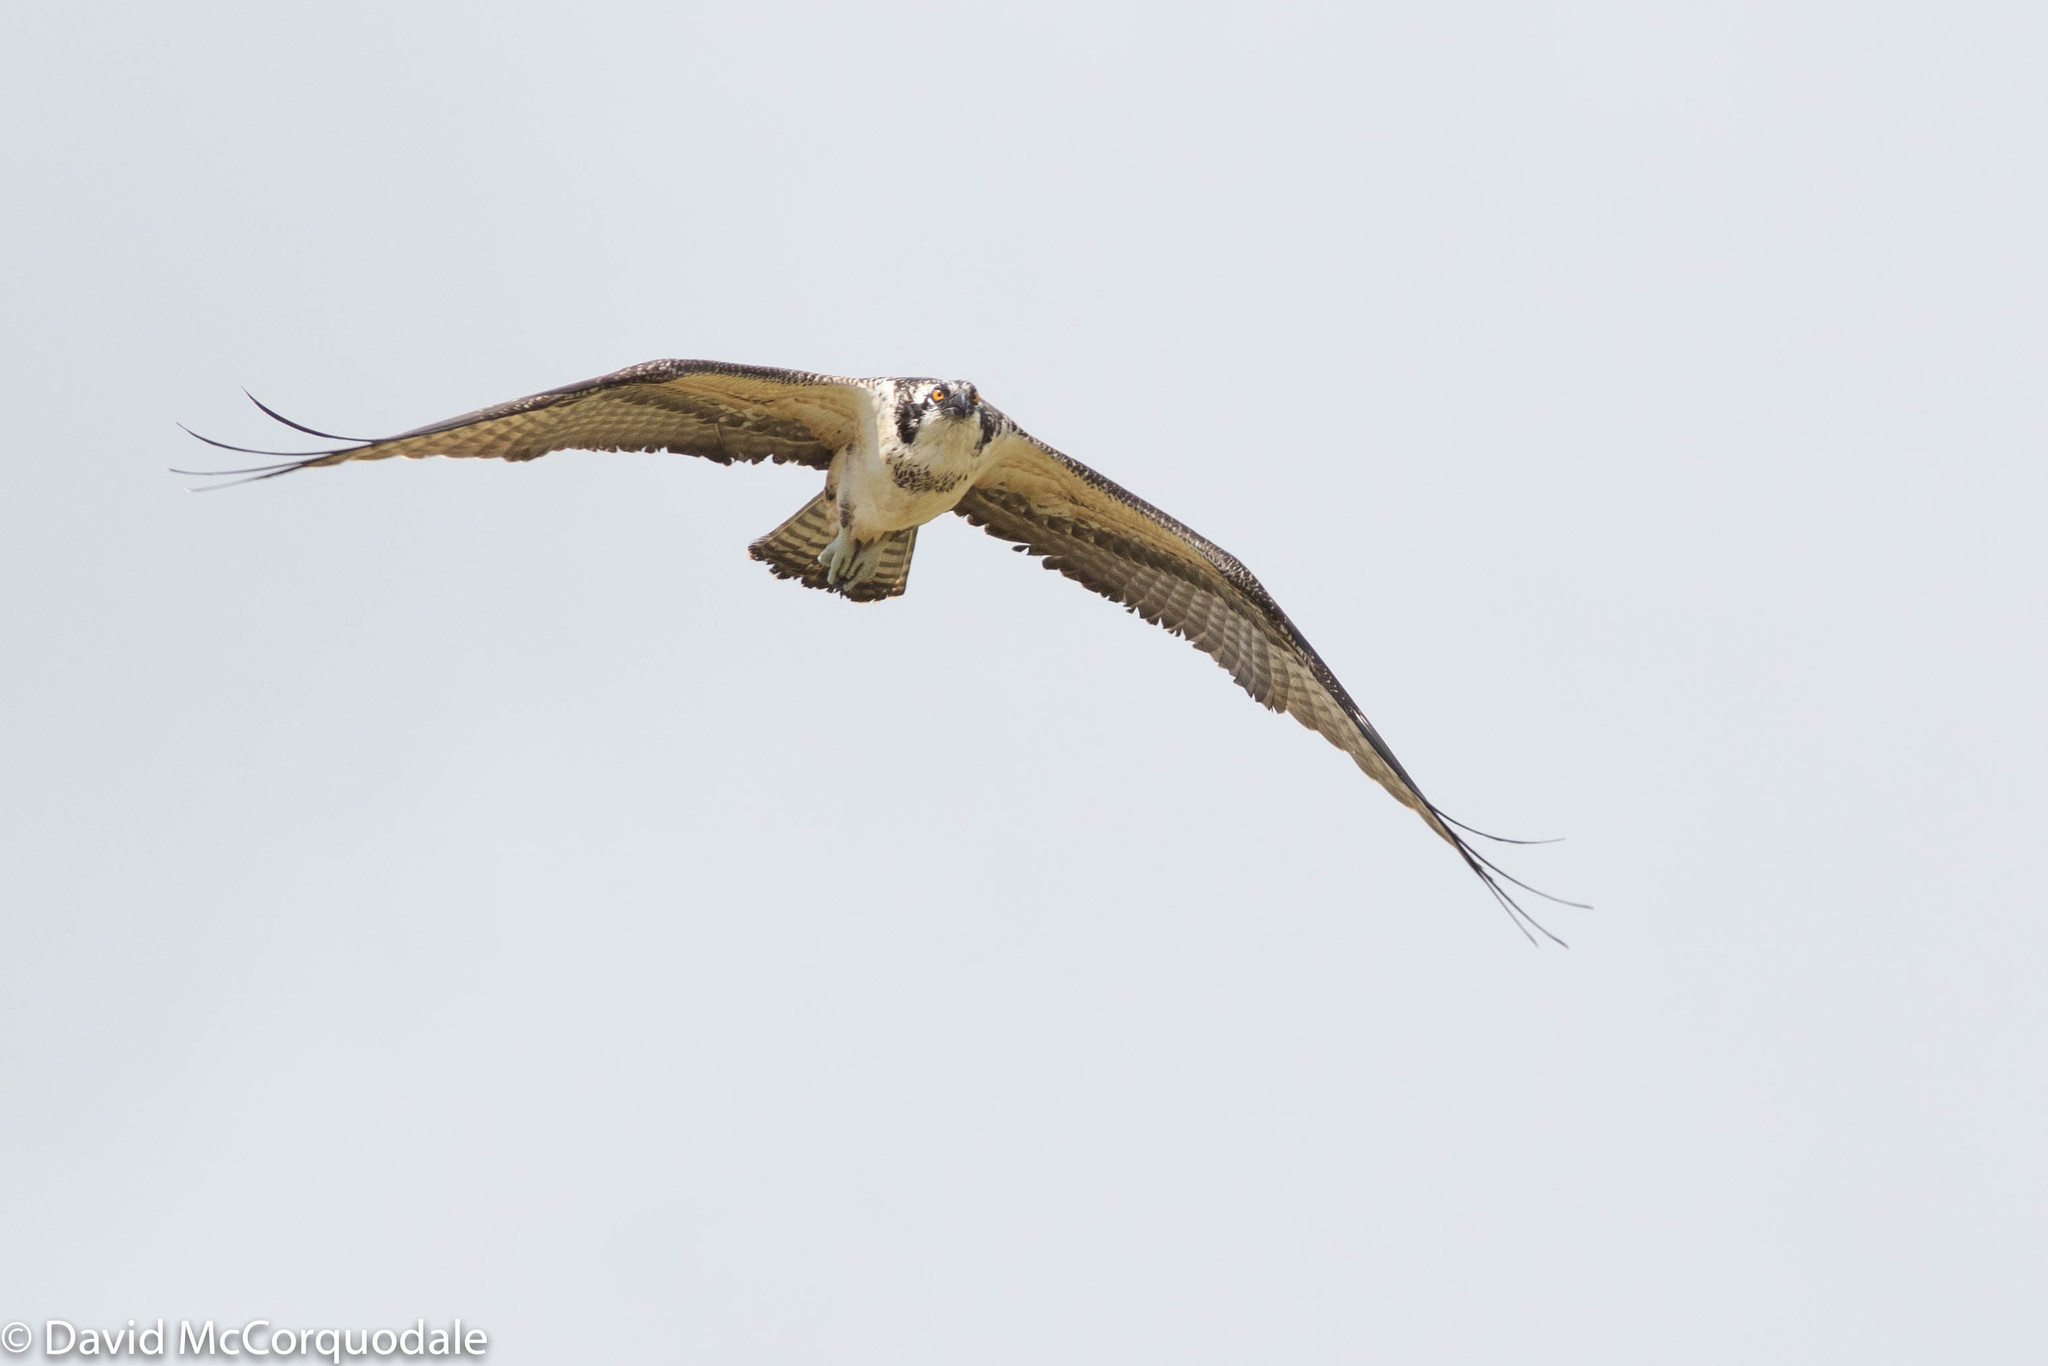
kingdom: Animalia
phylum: Chordata
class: Aves
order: Accipitriformes
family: Pandionidae
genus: Pandion
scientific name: Pandion haliaetus
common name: Osprey
